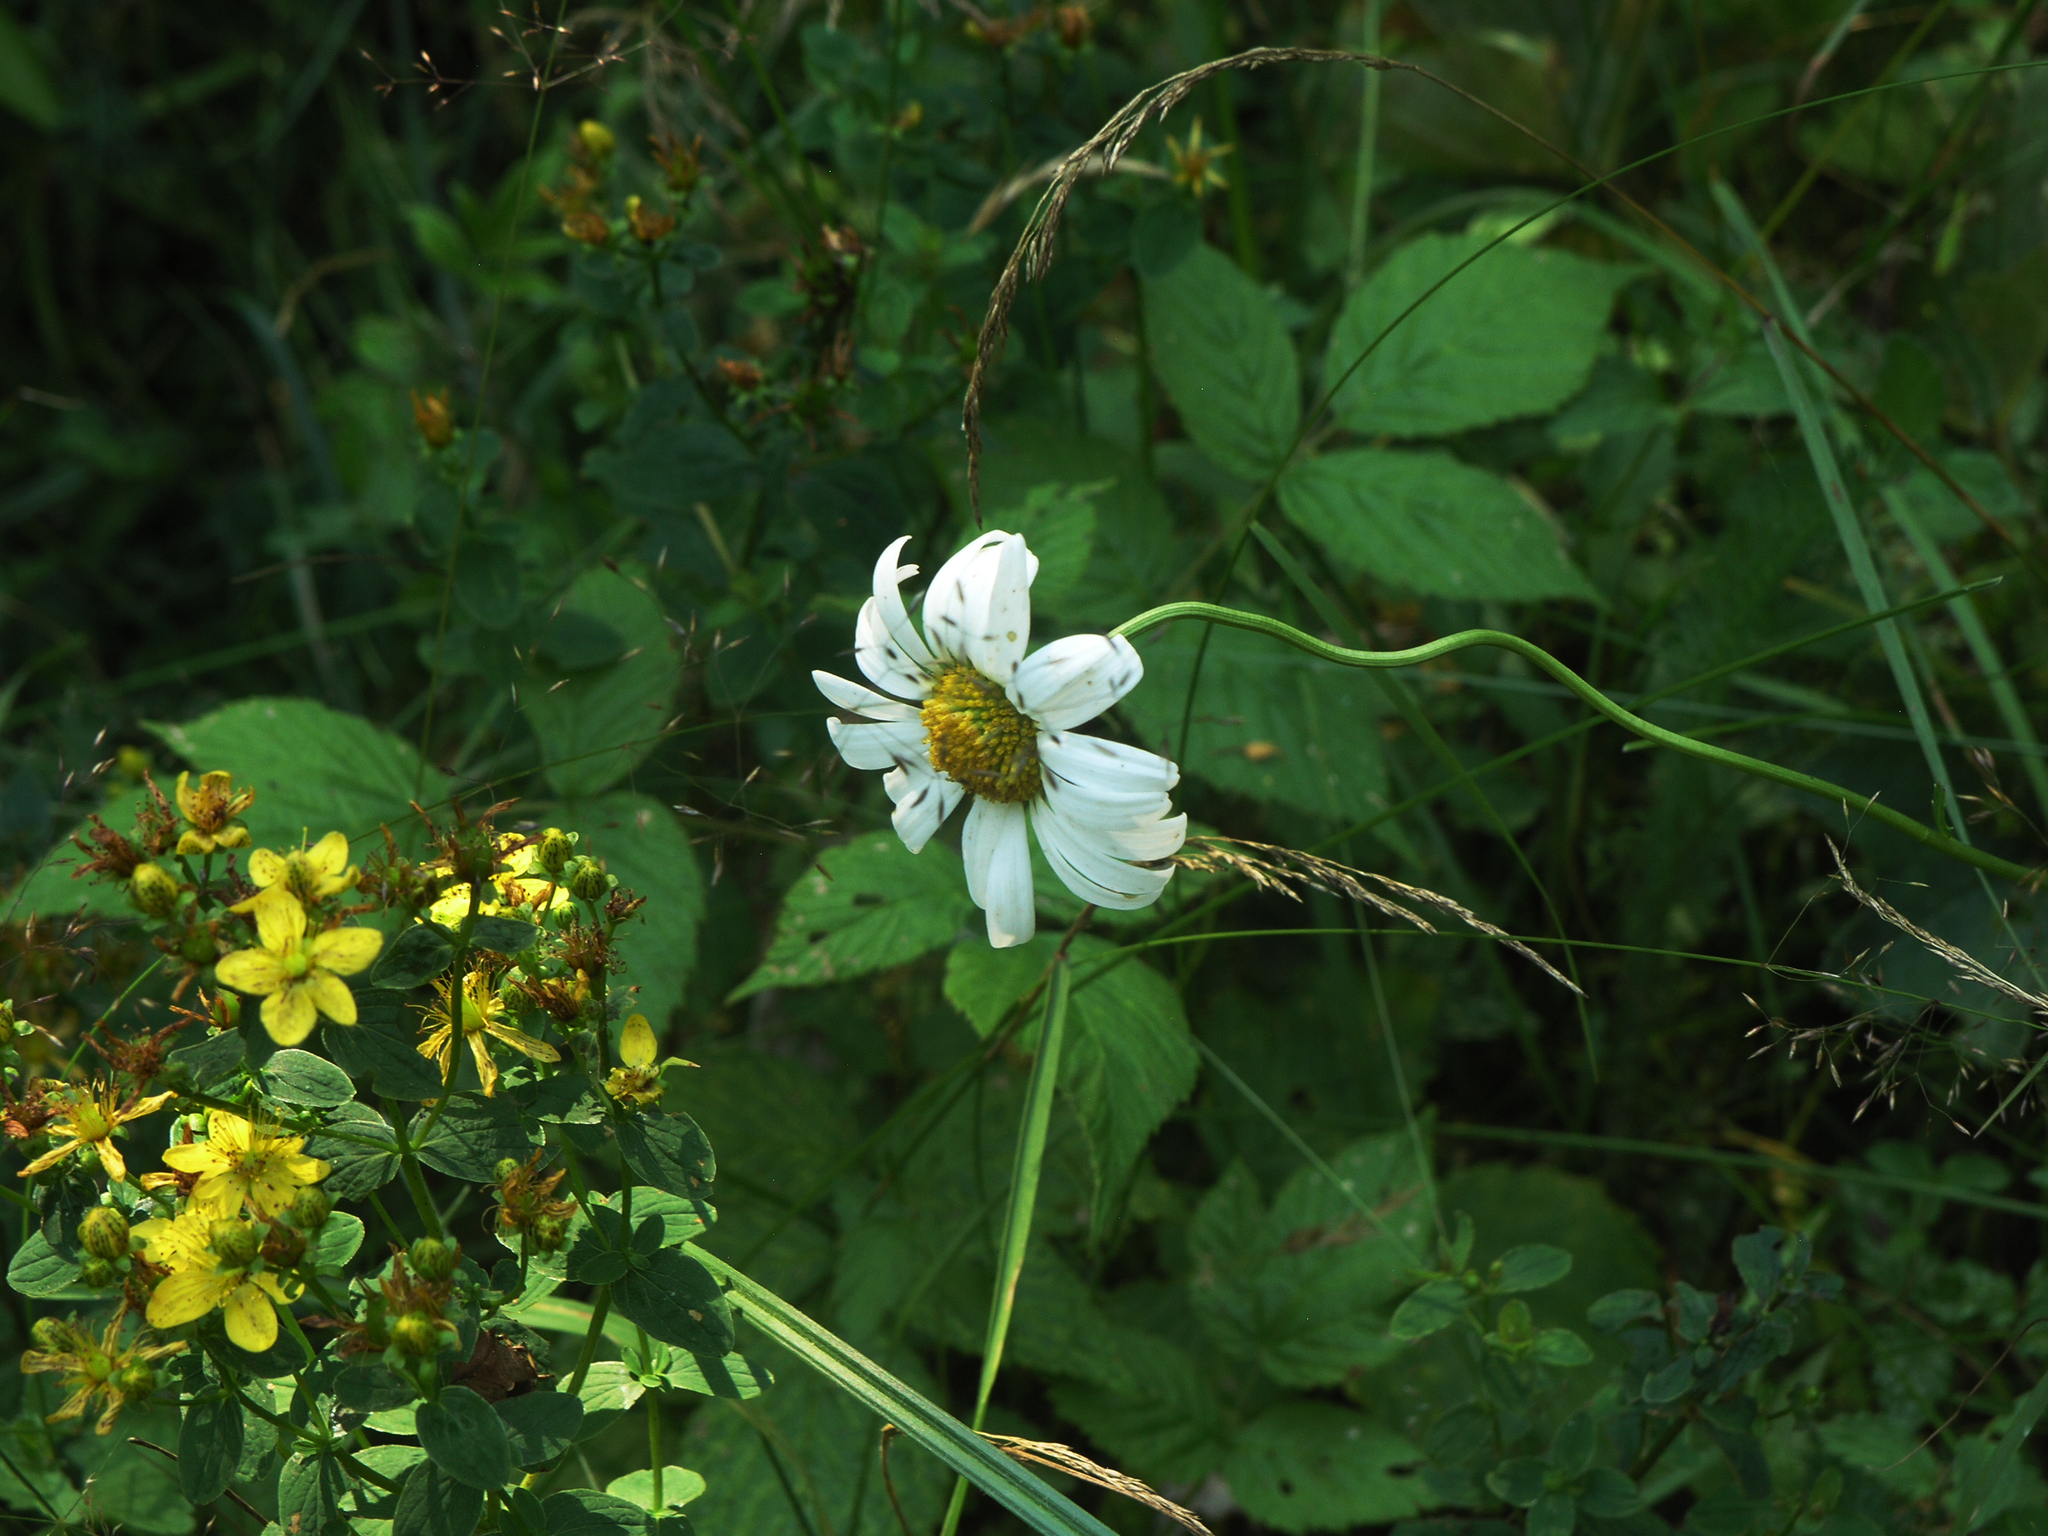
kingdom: Plantae
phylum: Tracheophyta
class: Magnoliopsida
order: Asterales
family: Asteraceae
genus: Leucanthemum
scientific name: Leucanthemum vulgare
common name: Oxeye daisy
